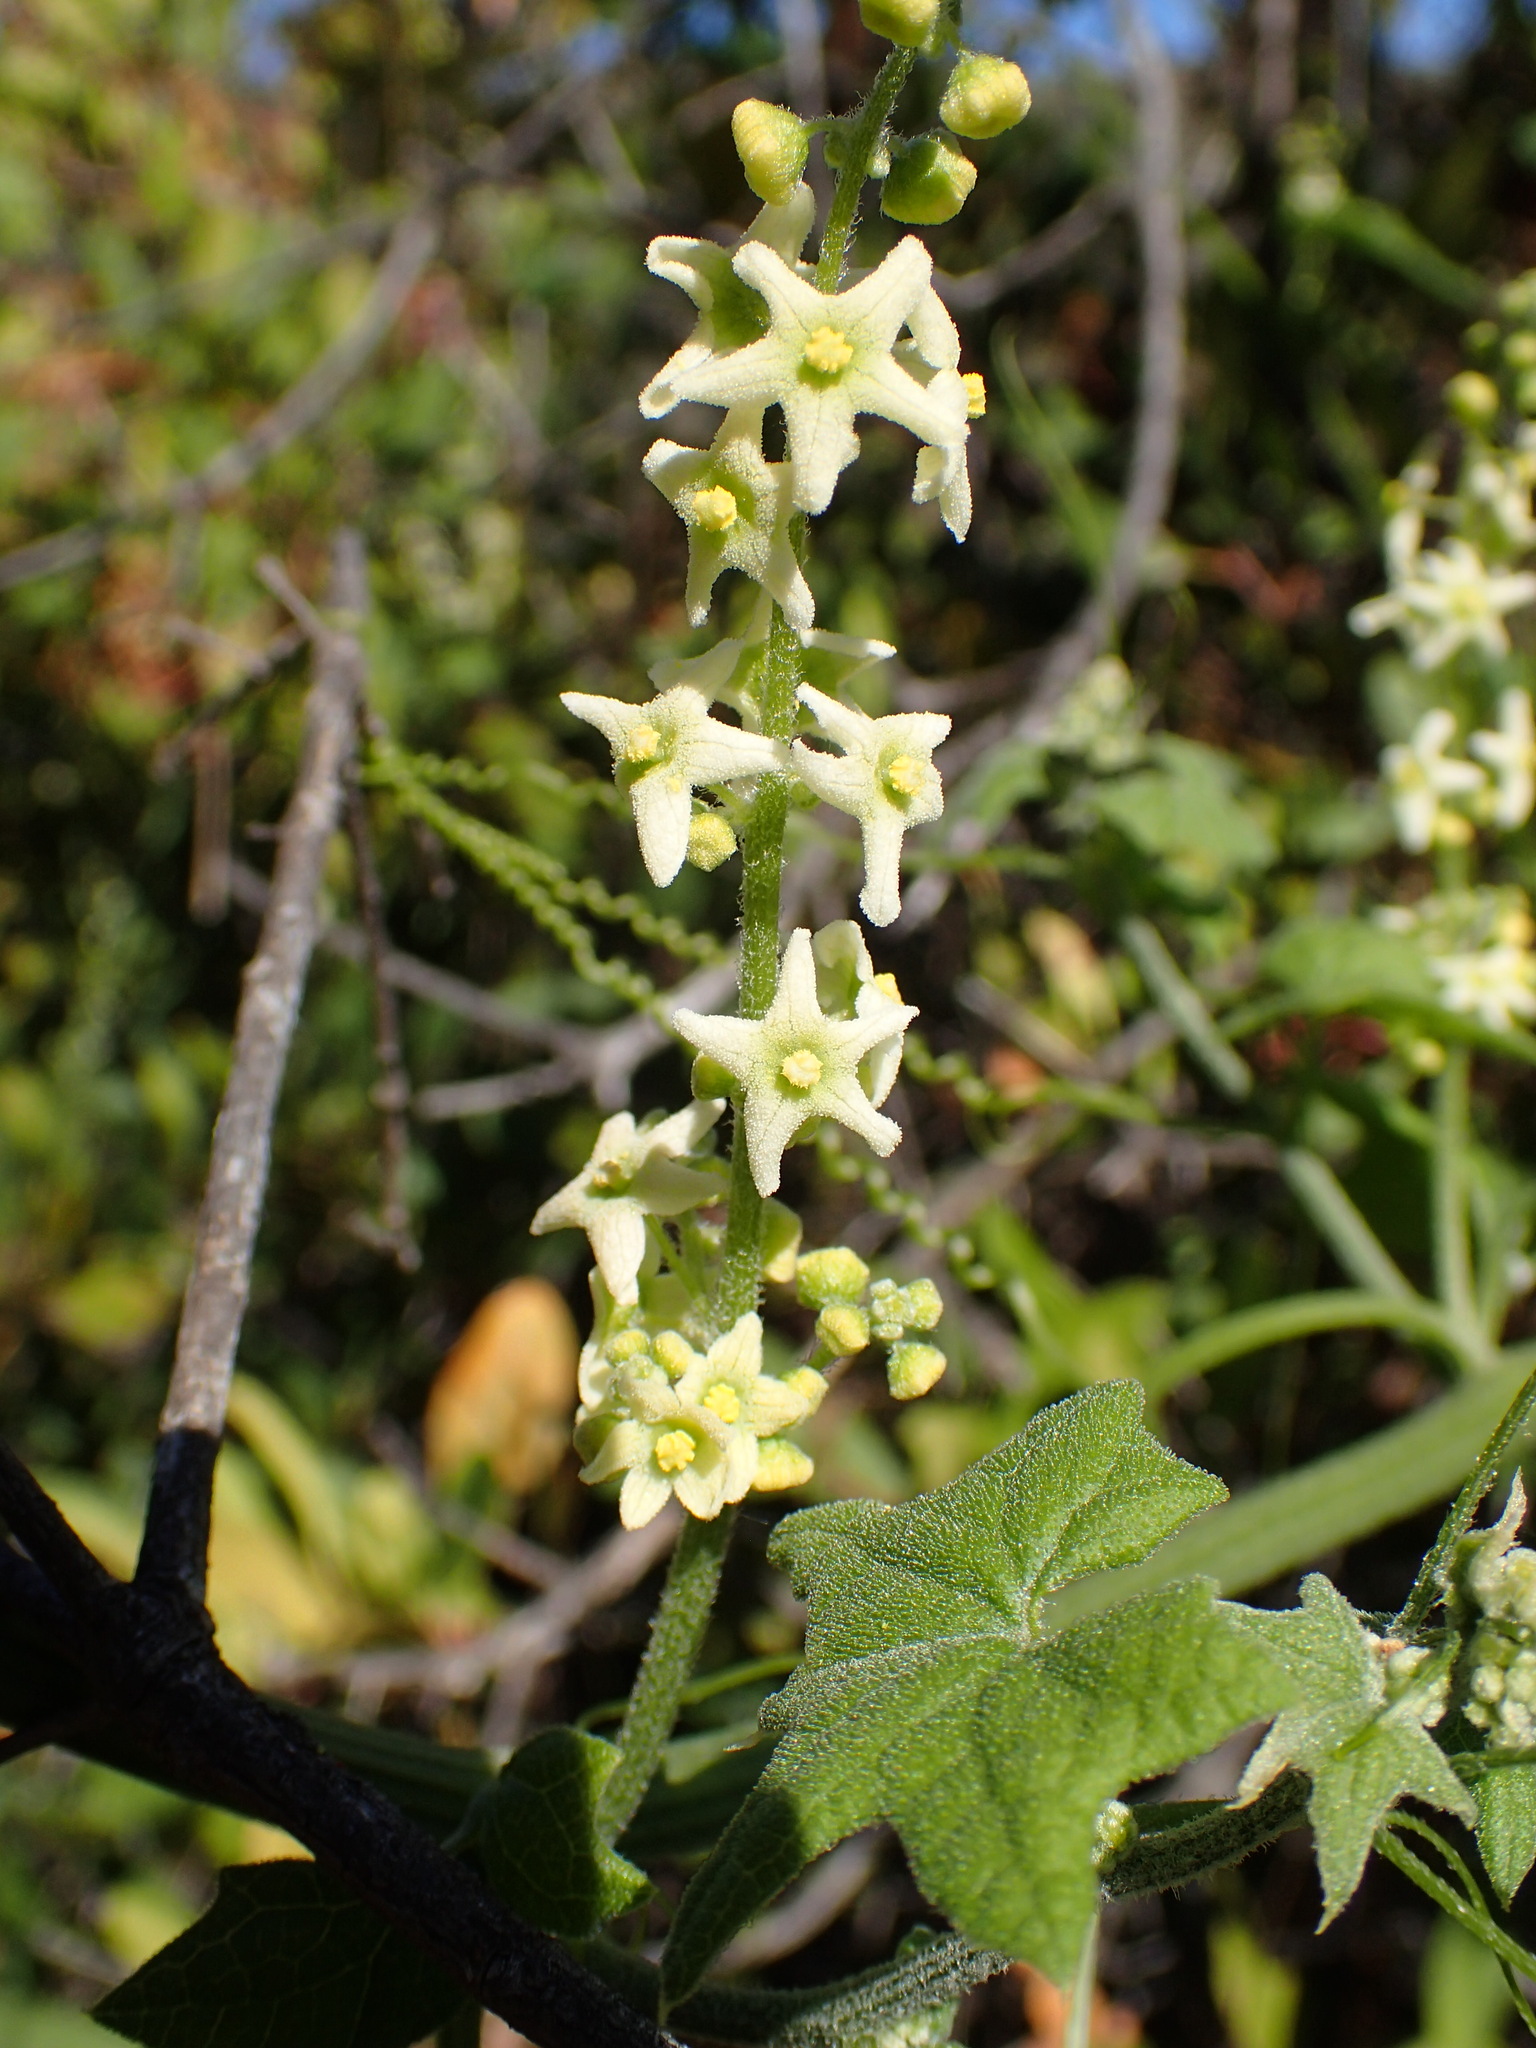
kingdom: Plantae
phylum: Tracheophyta
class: Magnoliopsida
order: Cucurbitales
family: Cucurbitaceae
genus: Marah
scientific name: Marah fabacea
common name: California manroot
